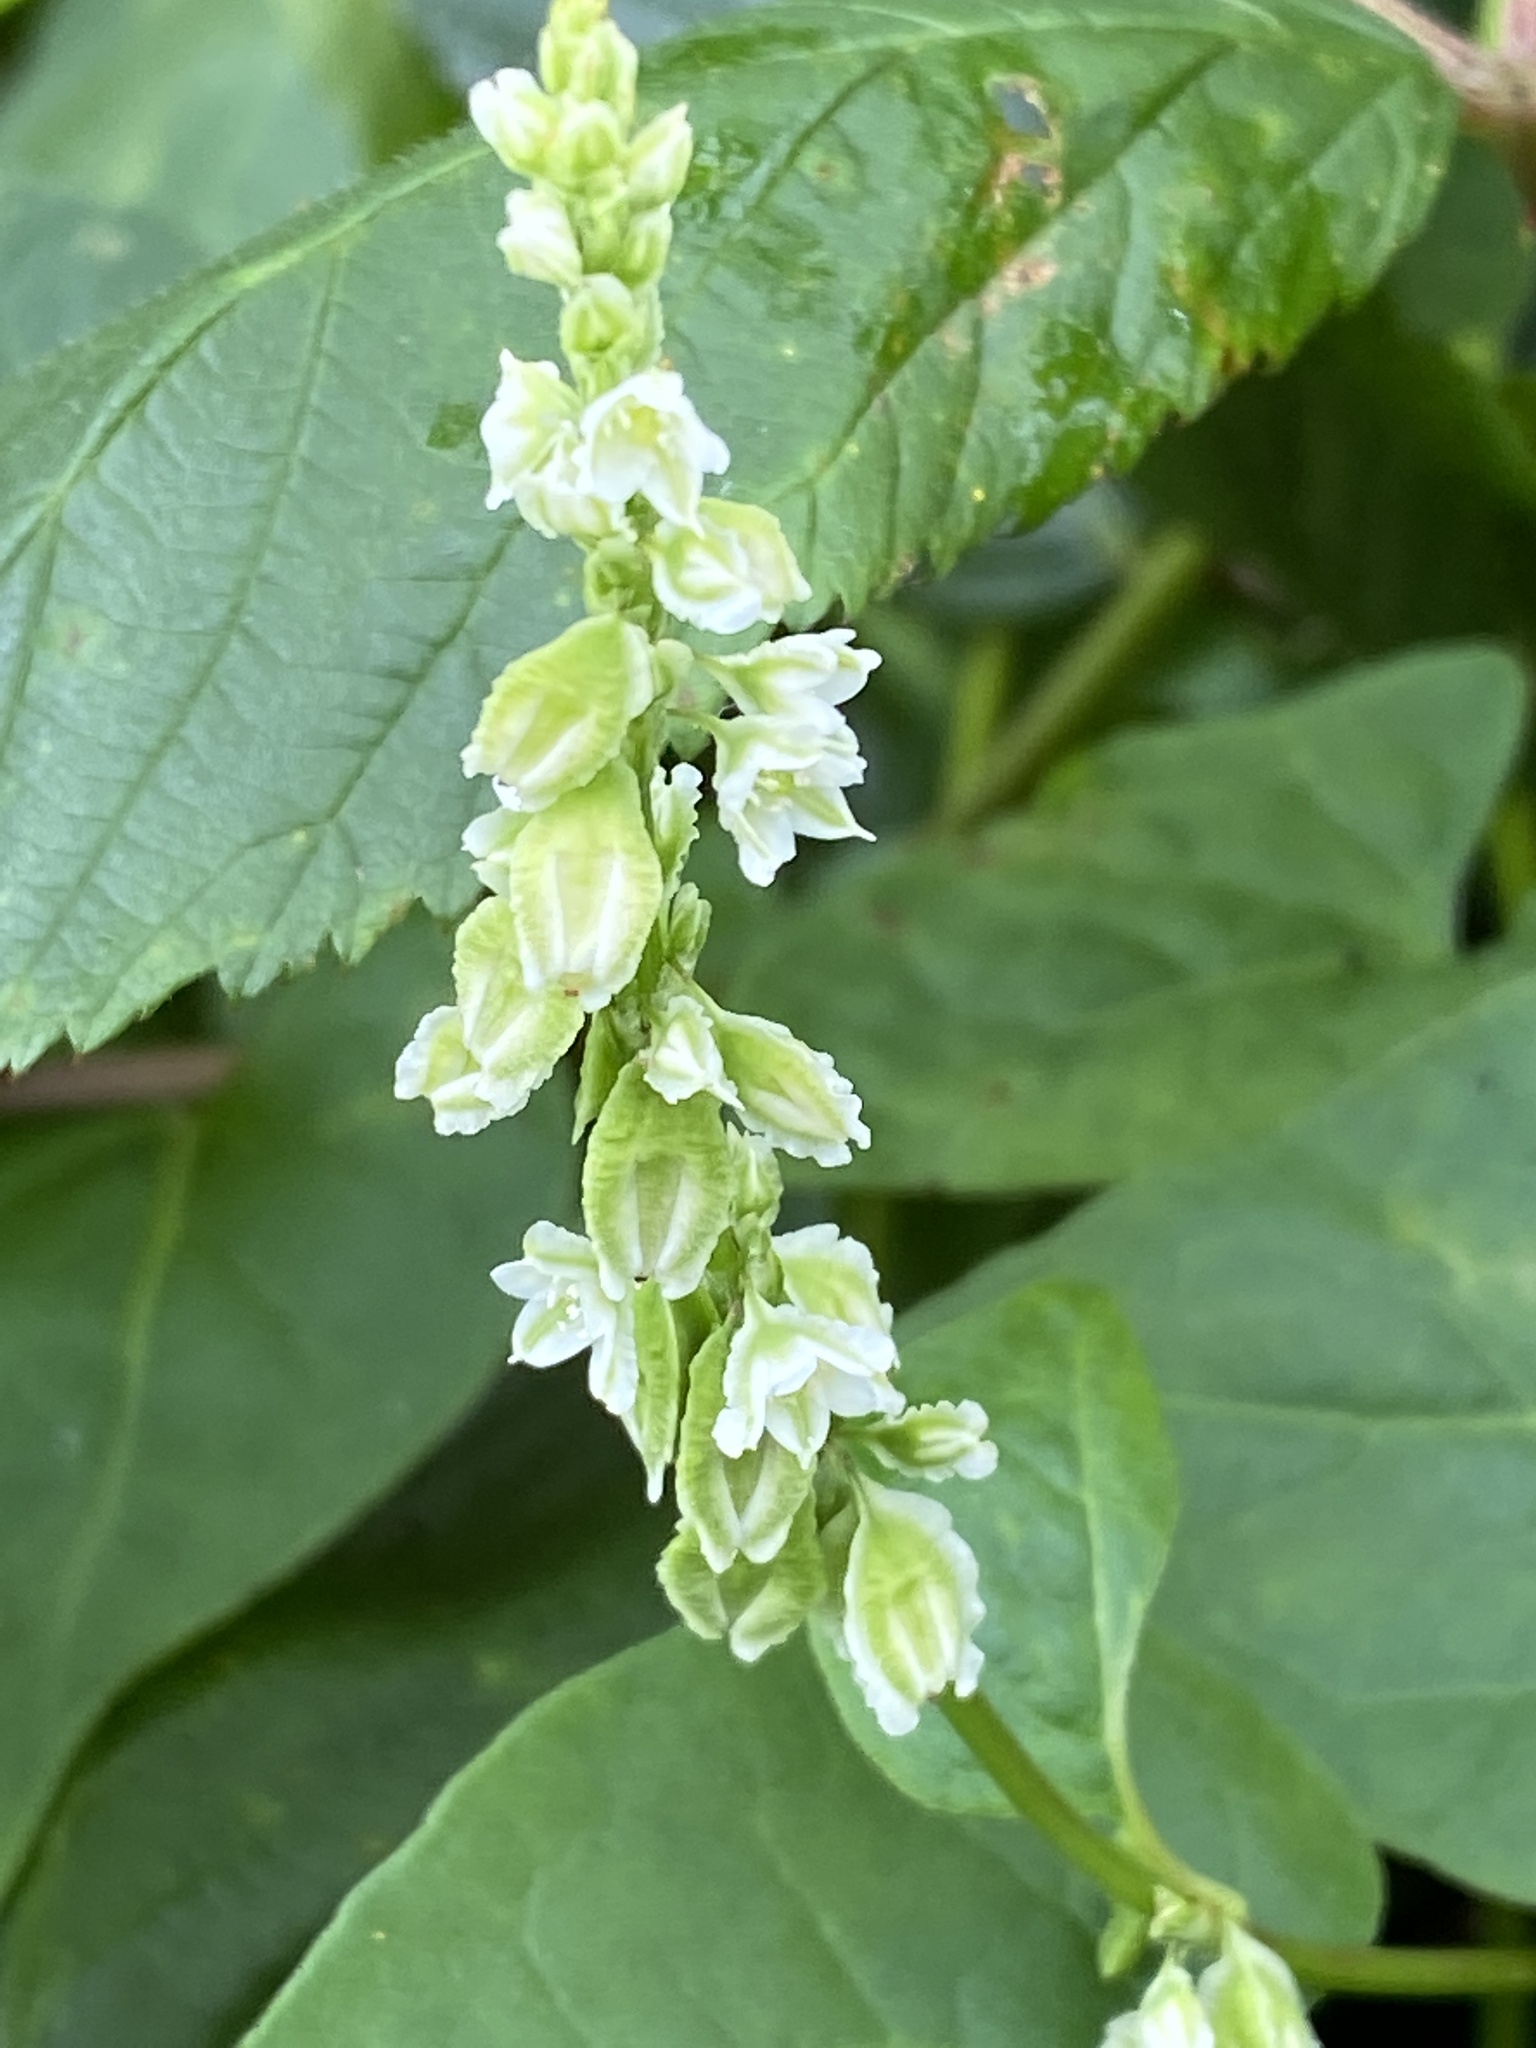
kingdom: Plantae
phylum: Tracheophyta
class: Magnoliopsida
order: Caryophyllales
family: Polygonaceae
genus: Fallopia
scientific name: Fallopia scandens
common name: Climbing false buckwheat
